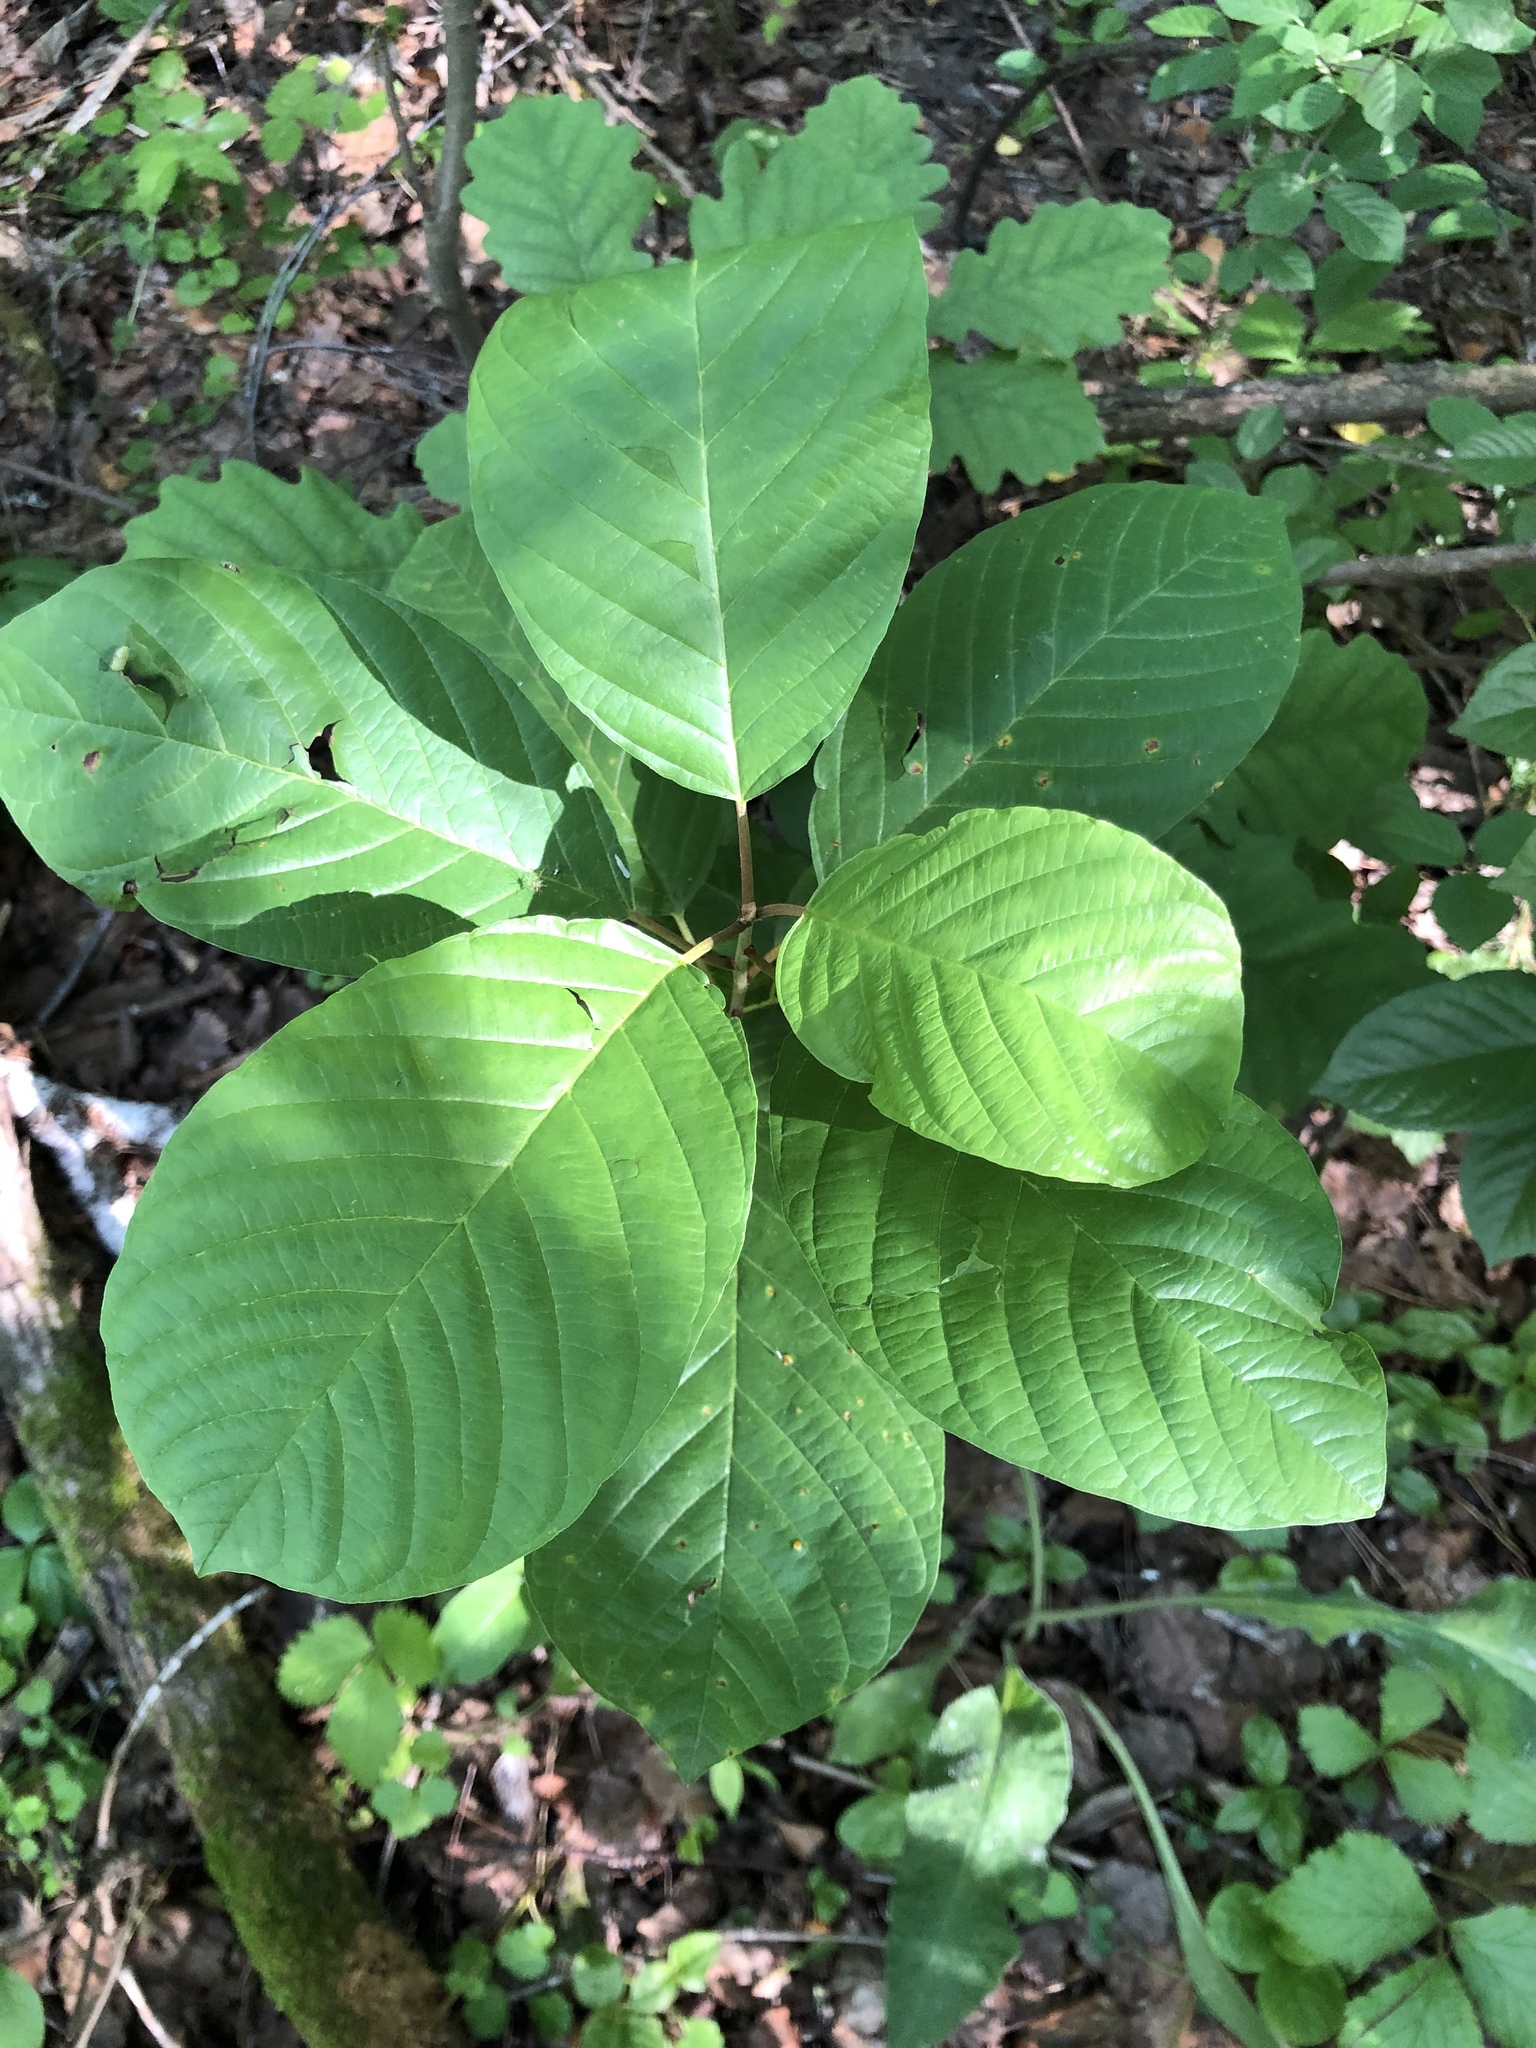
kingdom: Plantae
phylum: Tracheophyta
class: Magnoliopsida
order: Rosales
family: Rhamnaceae
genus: Frangula
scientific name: Frangula alnus
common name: Alder buckthorn
